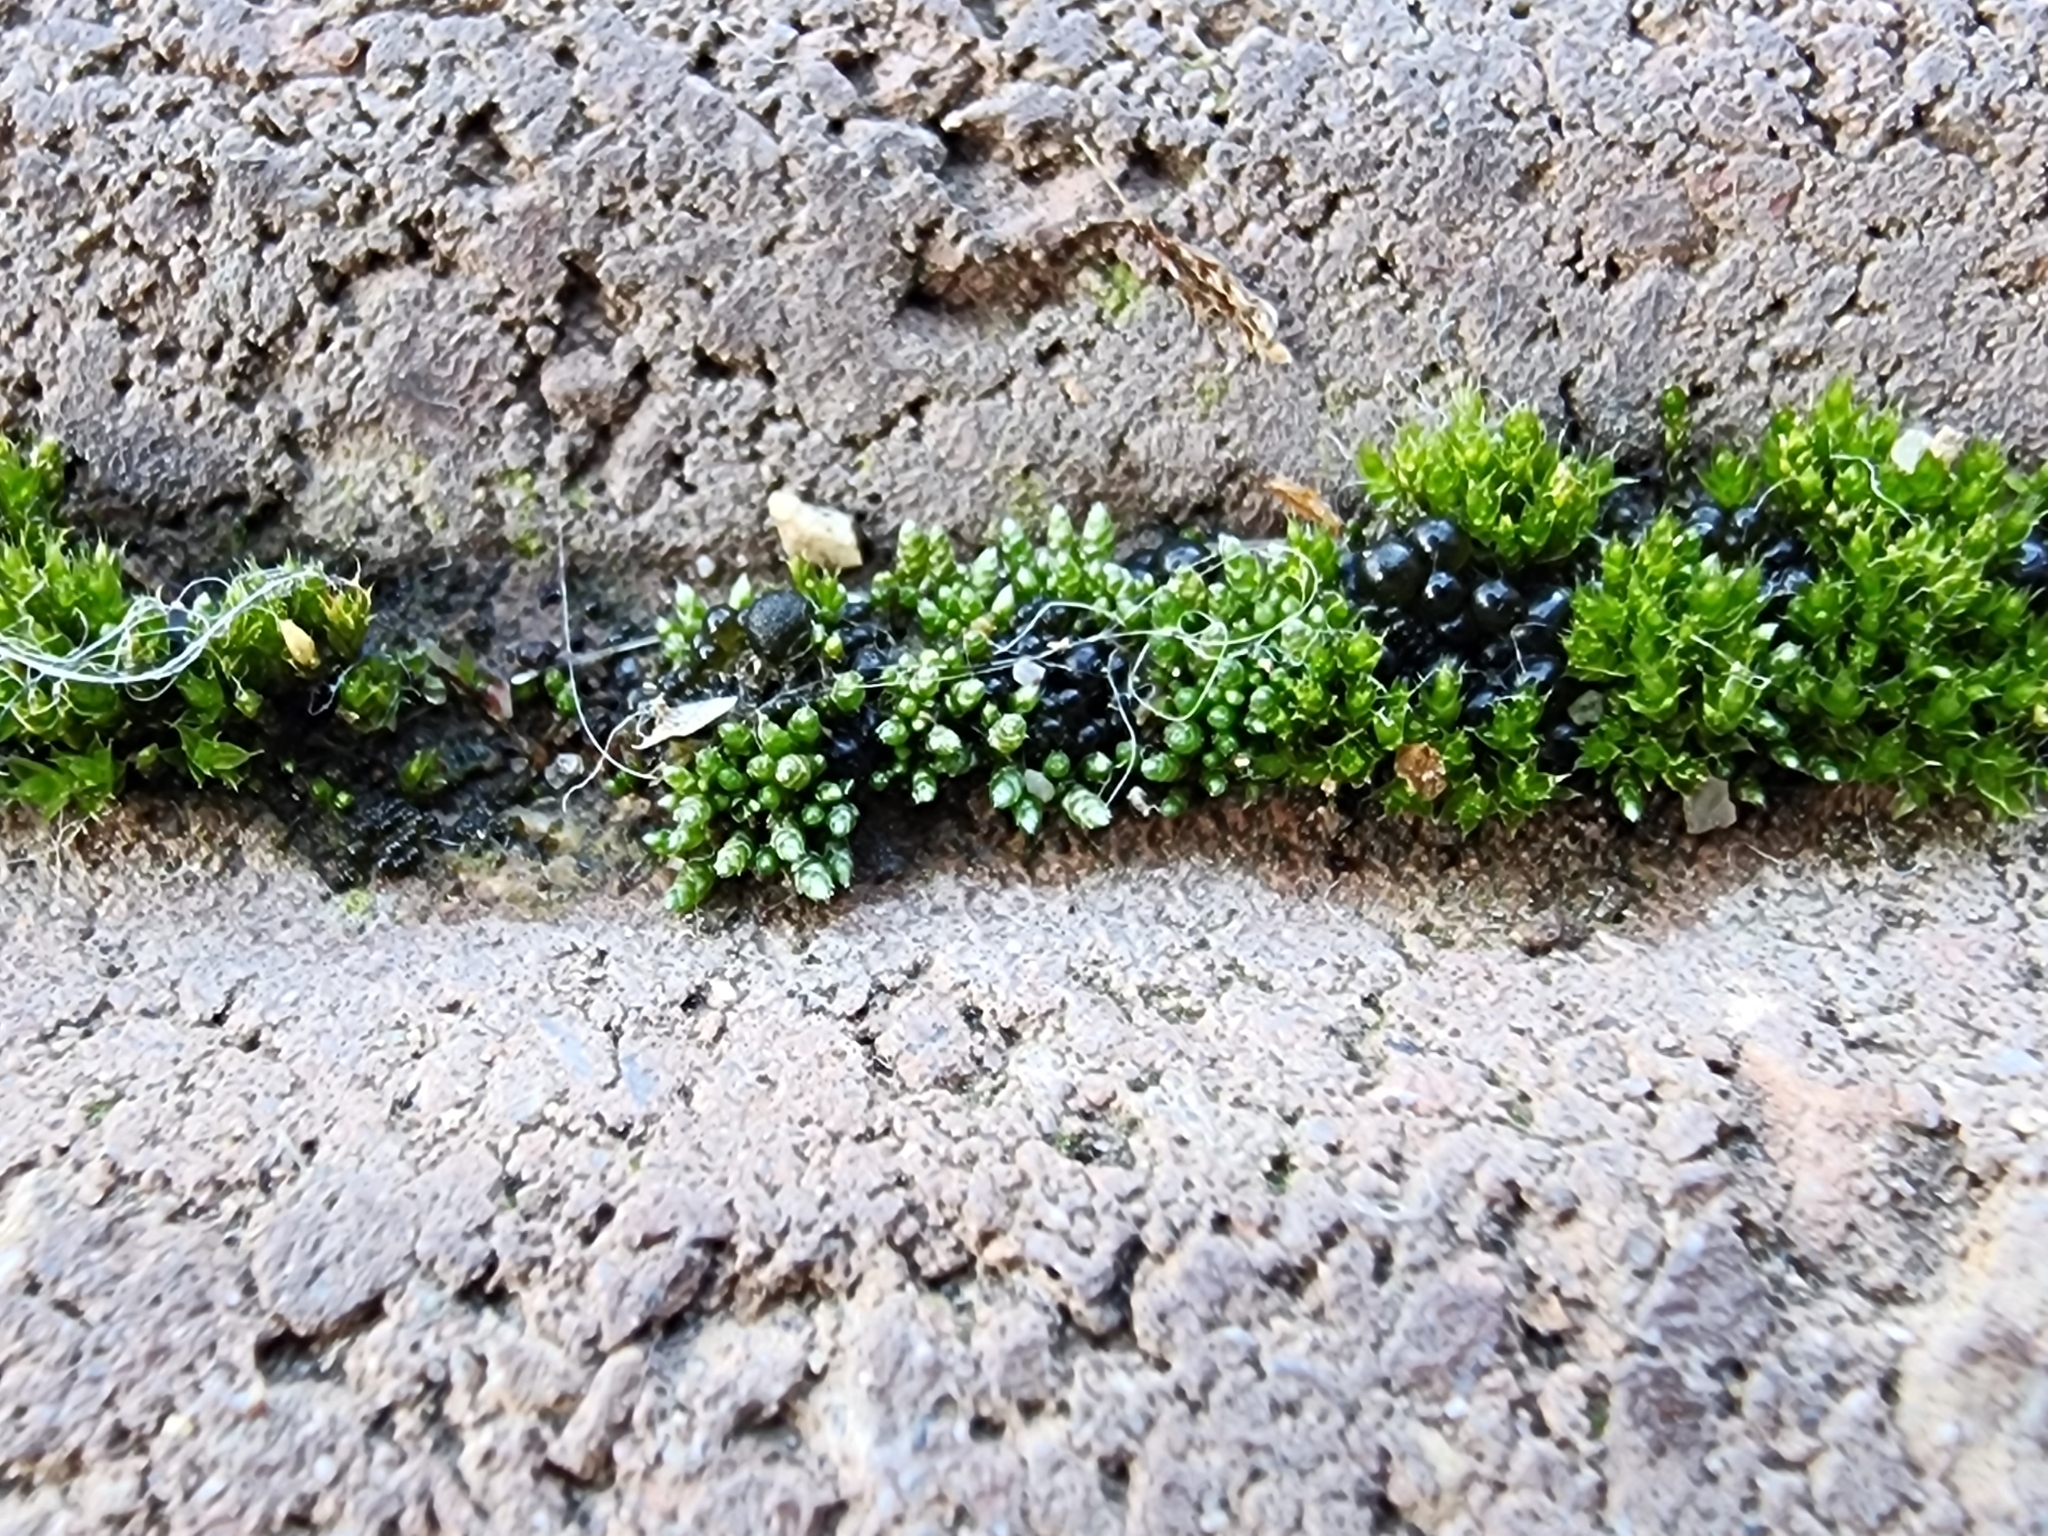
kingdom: Plantae
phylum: Bryophyta
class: Bryopsida
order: Bryales
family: Bryaceae
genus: Bryum
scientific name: Bryum argenteum
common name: Silver-moss
